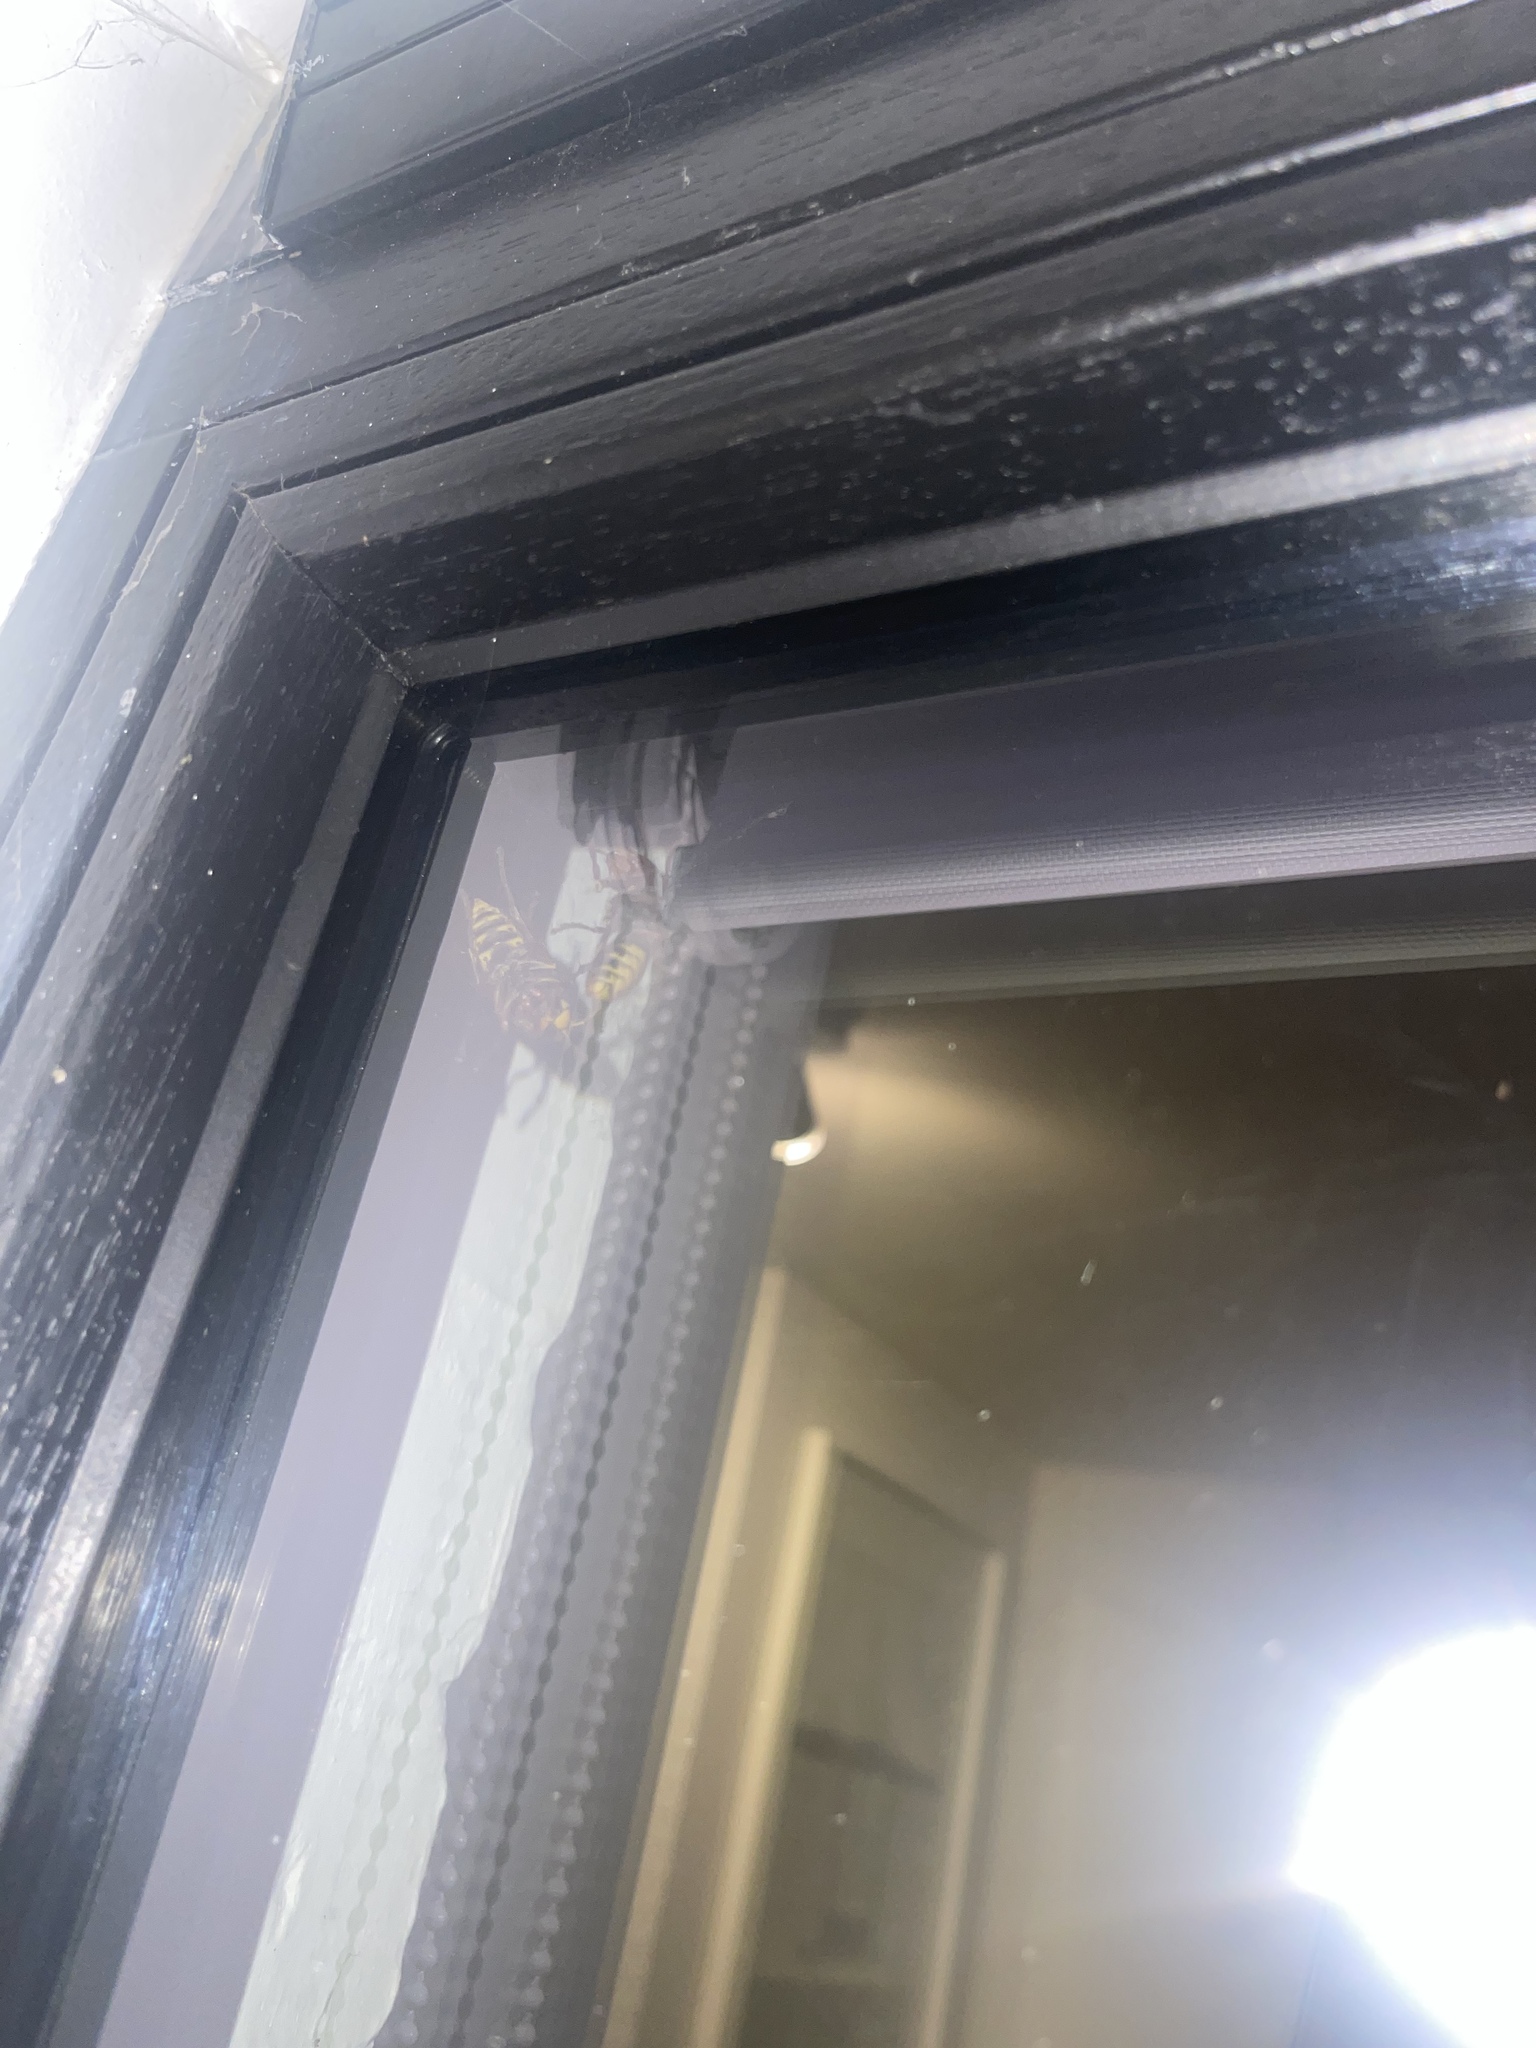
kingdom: Animalia
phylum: Arthropoda
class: Insecta
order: Hymenoptera
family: Vespidae
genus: Vespa
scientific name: Vespa crabro
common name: Hornet
